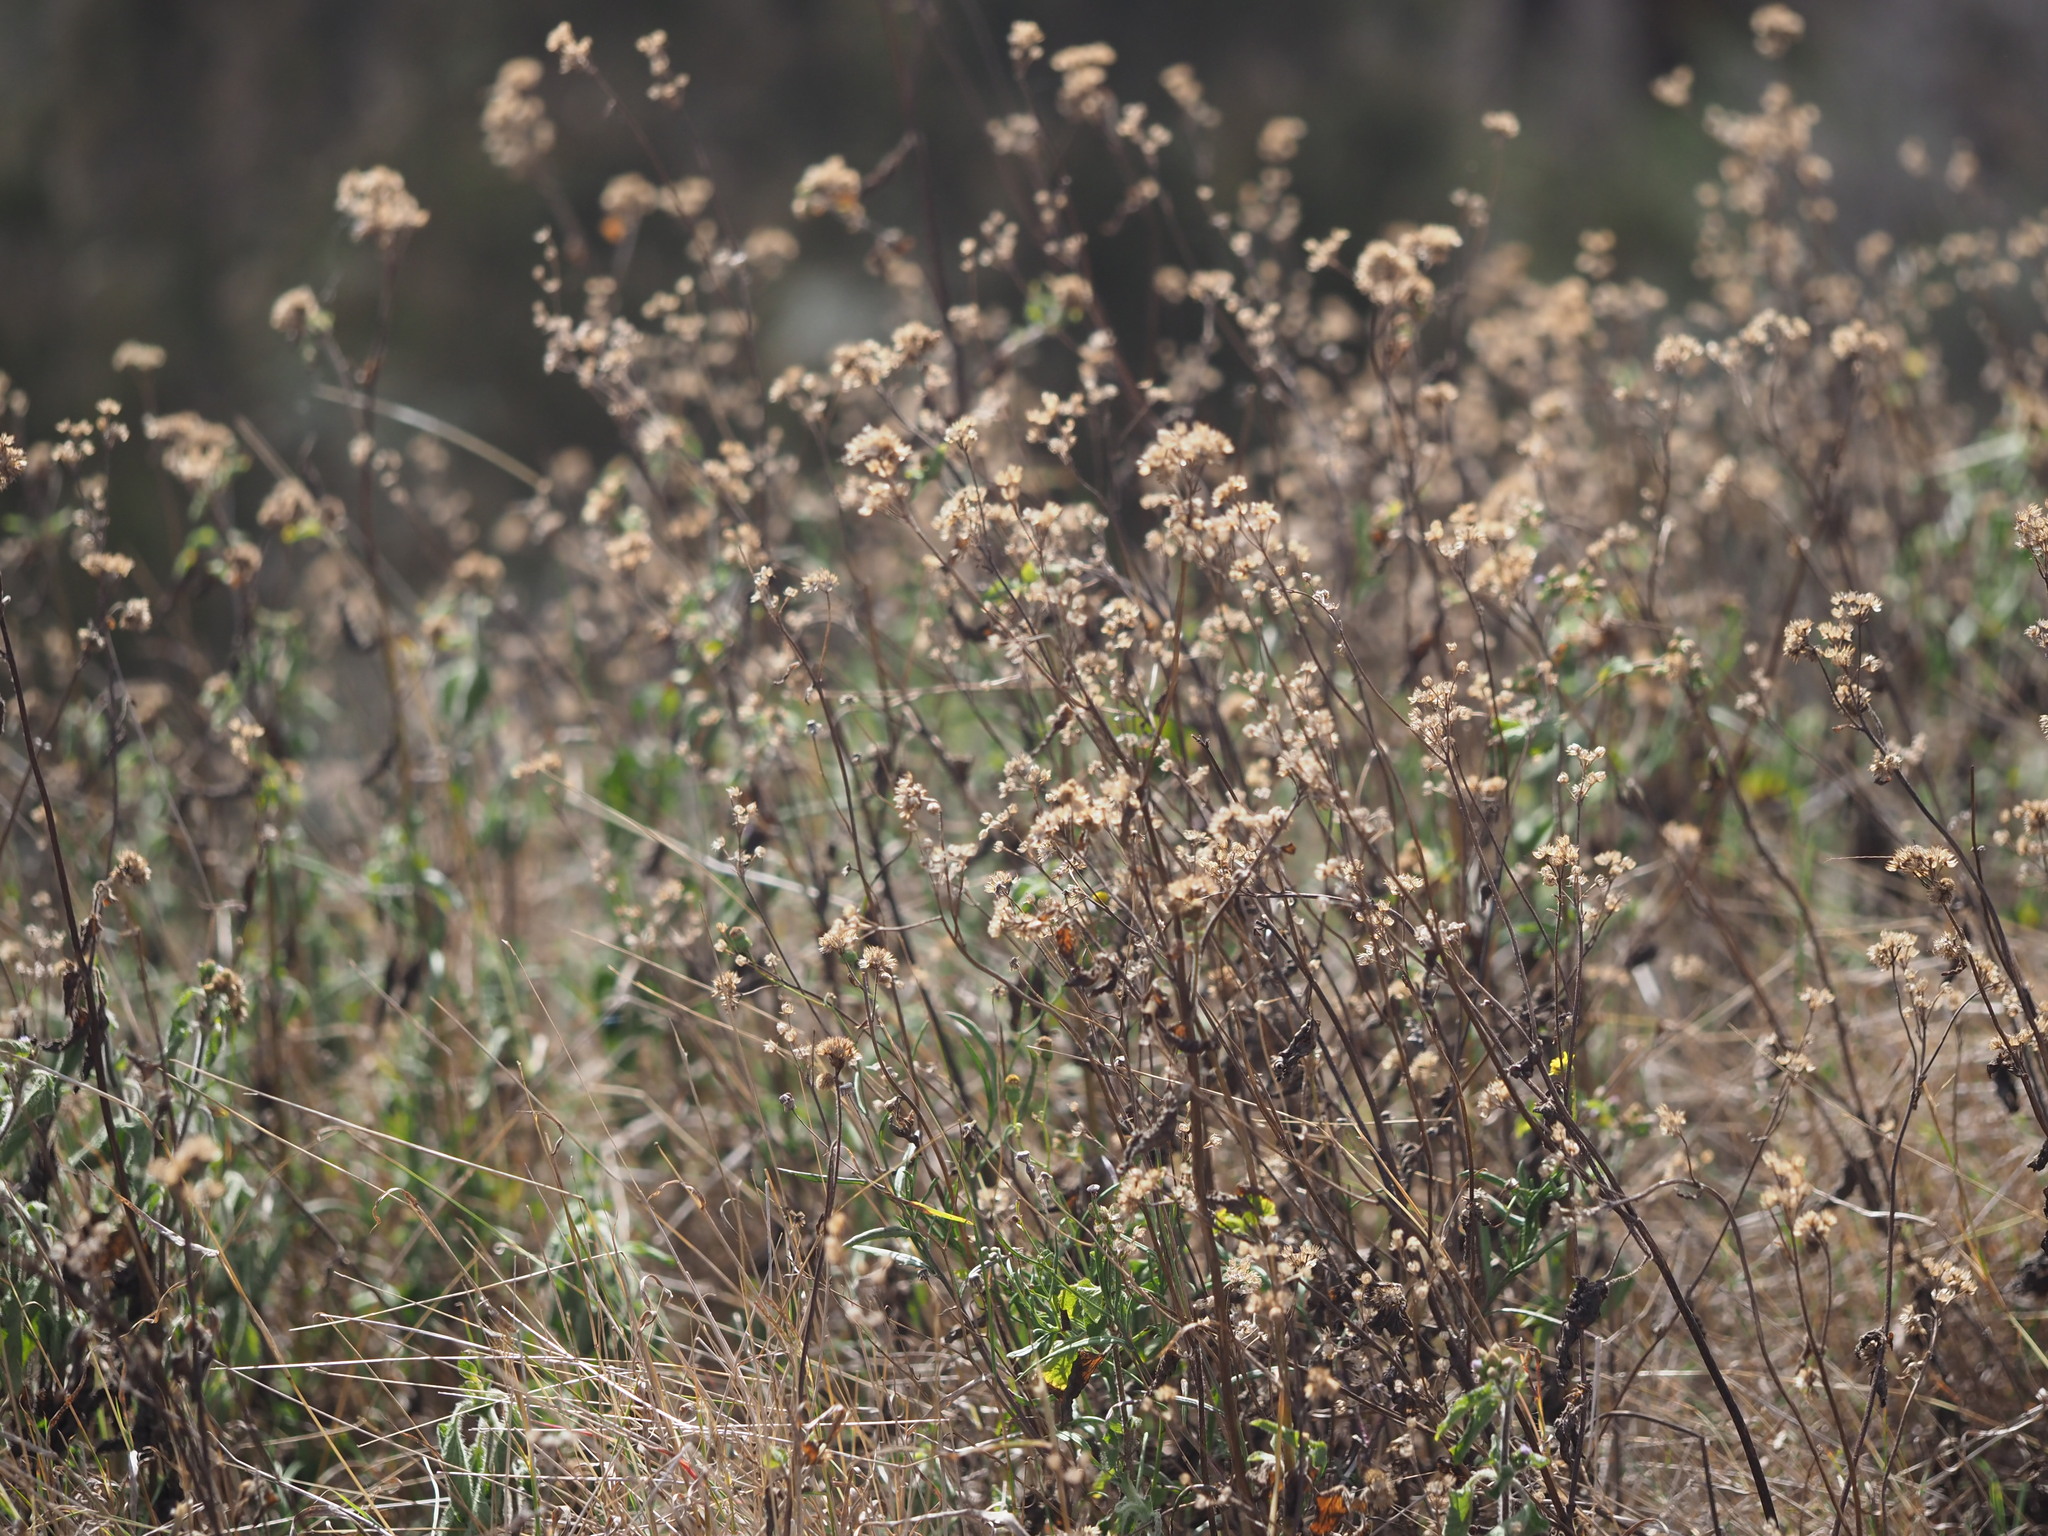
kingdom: Plantae
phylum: Tracheophyta
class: Magnoliopsida
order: Asterales
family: Asteraceae
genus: Ageratum
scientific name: Ageratum conyzoides
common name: Tropical whiteweed
